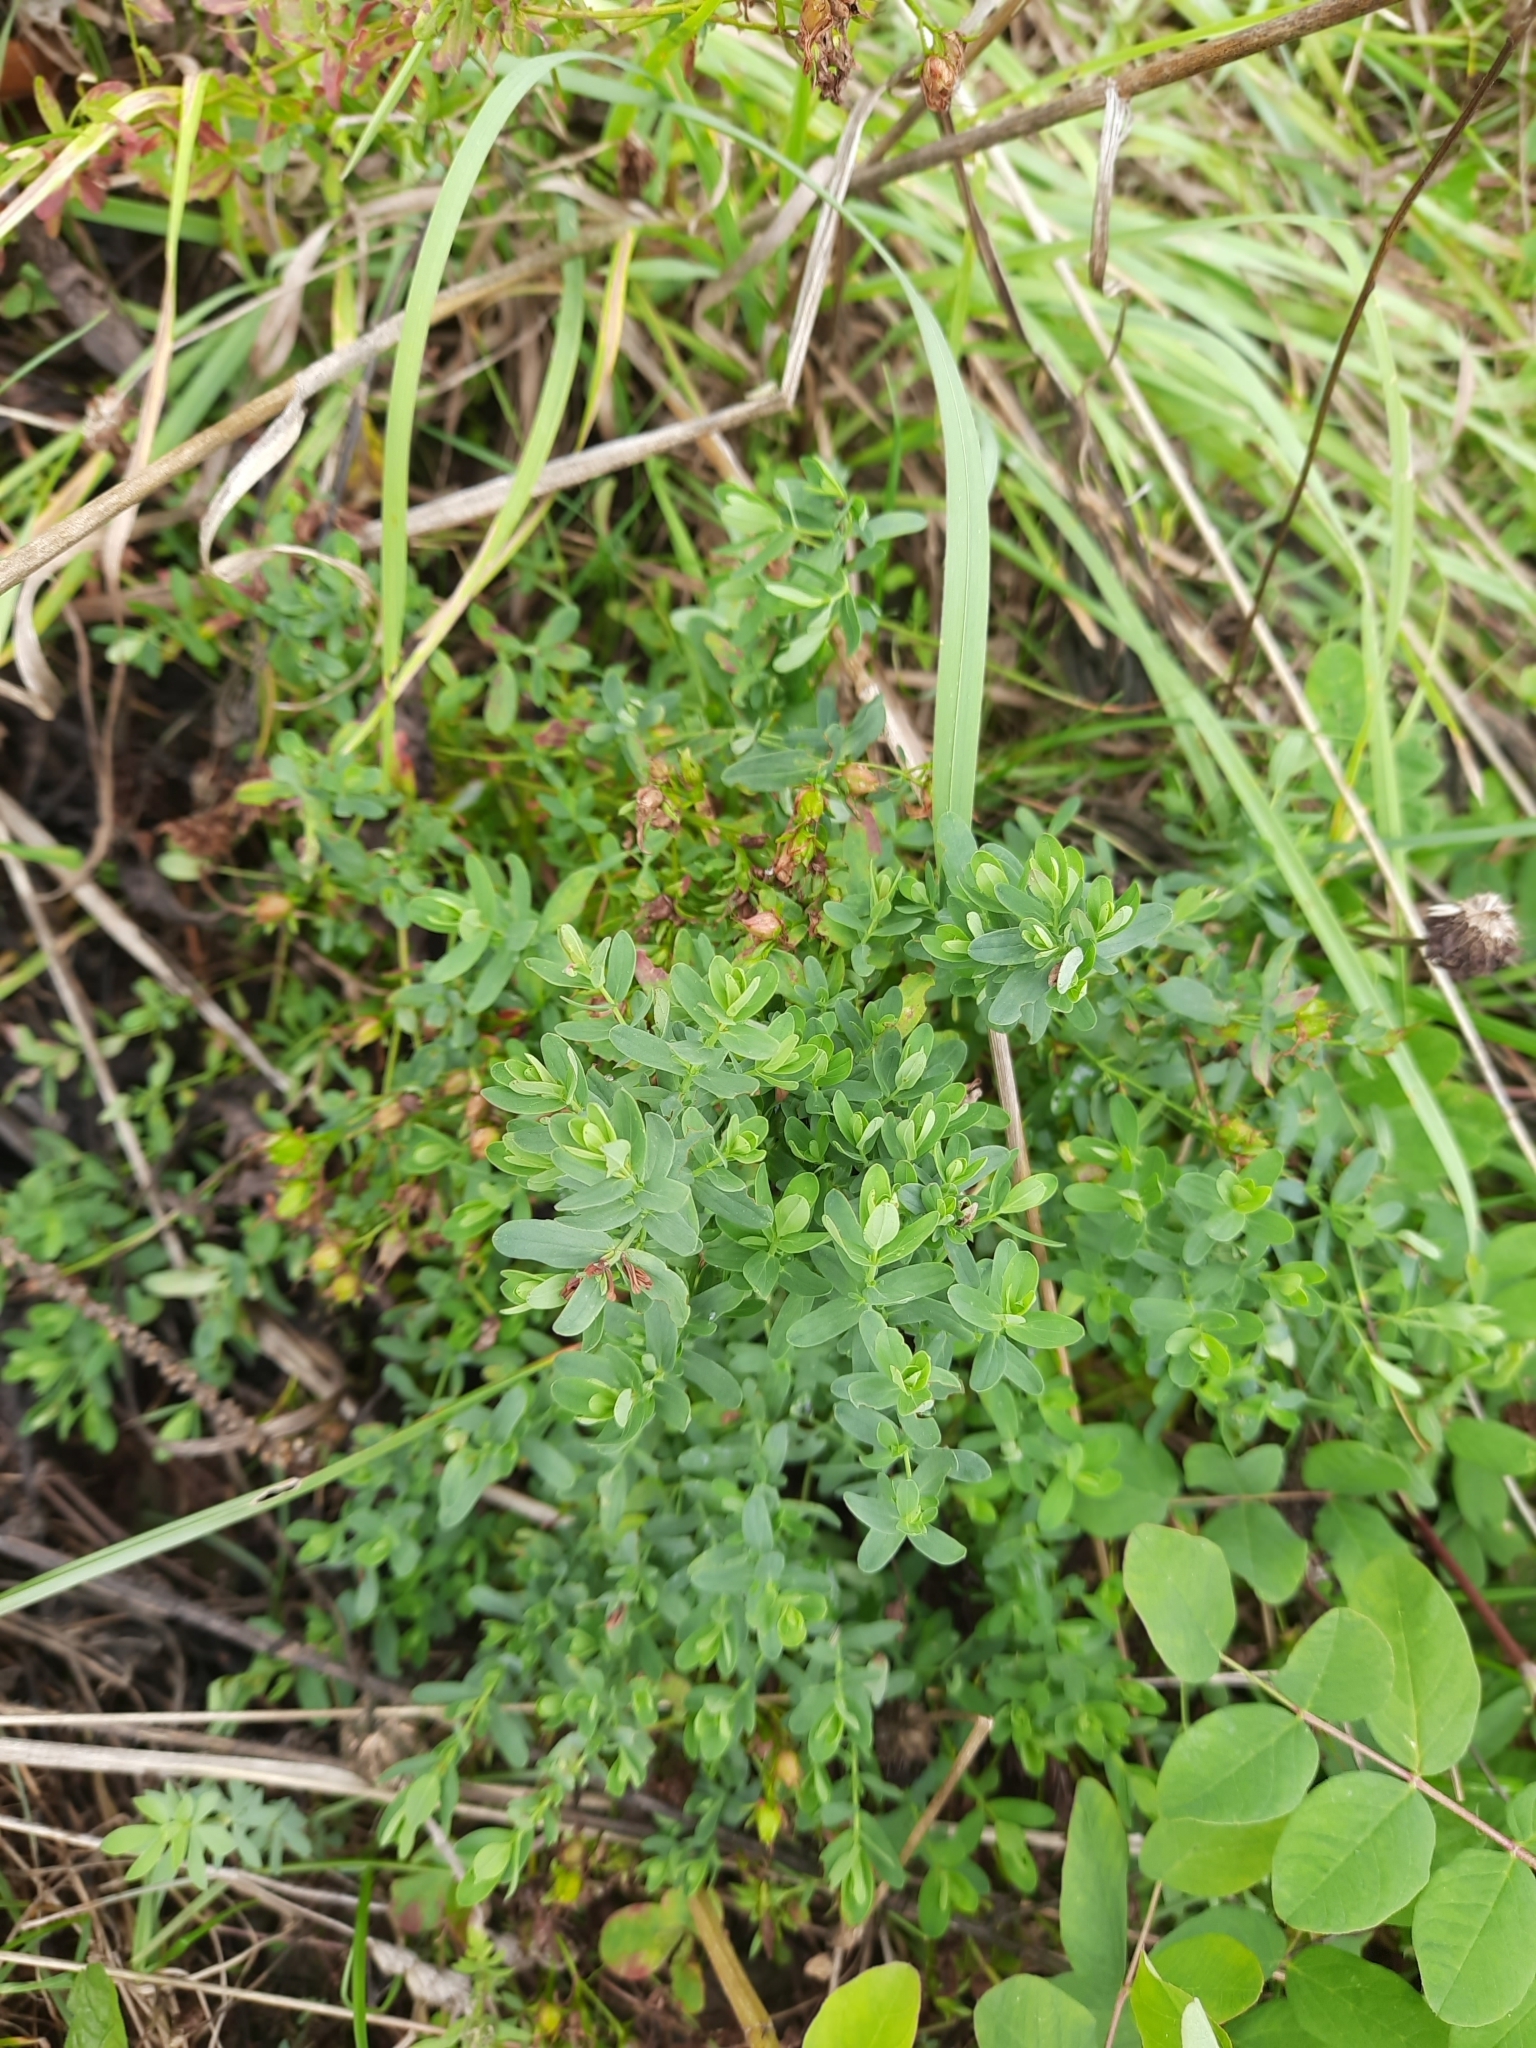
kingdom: Plantae
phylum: Tracheophyta
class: Magnoliopsida
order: Malpighiales
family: Hypericaceae
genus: Hypericum
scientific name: Hypericum perforatum
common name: Common st. johnswort
